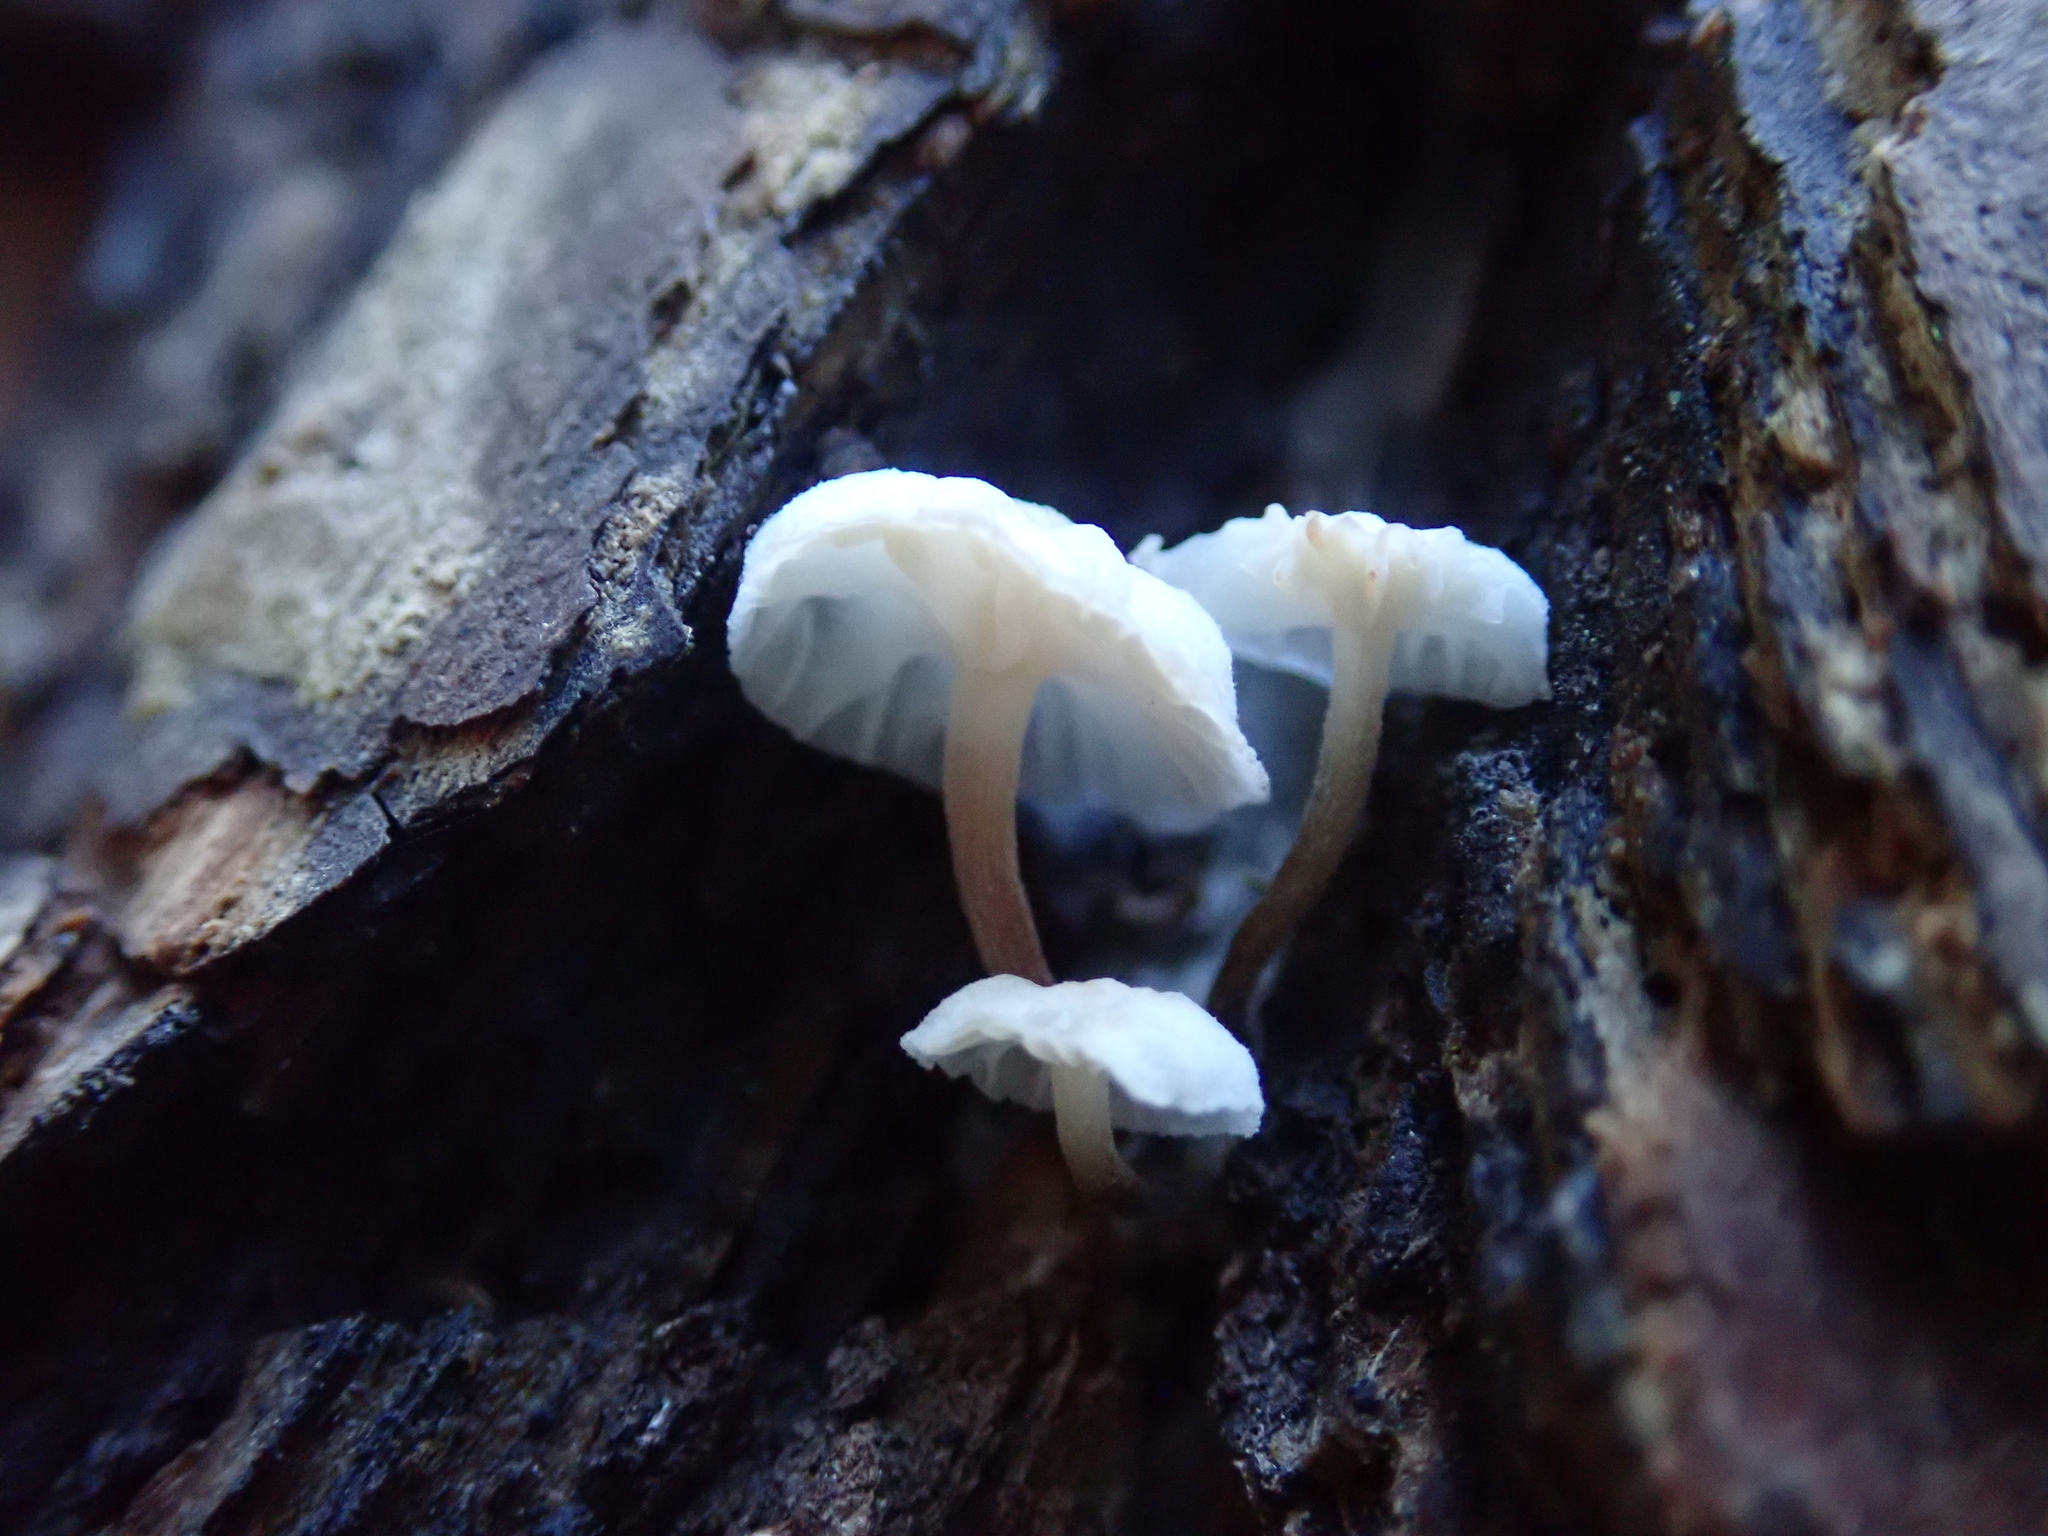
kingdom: Fungi
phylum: Basidiomycota
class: Agaricomycetes
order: Agaricales
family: Omphalotaceae
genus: Marasmiellus
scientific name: Marasmiellus candidus
